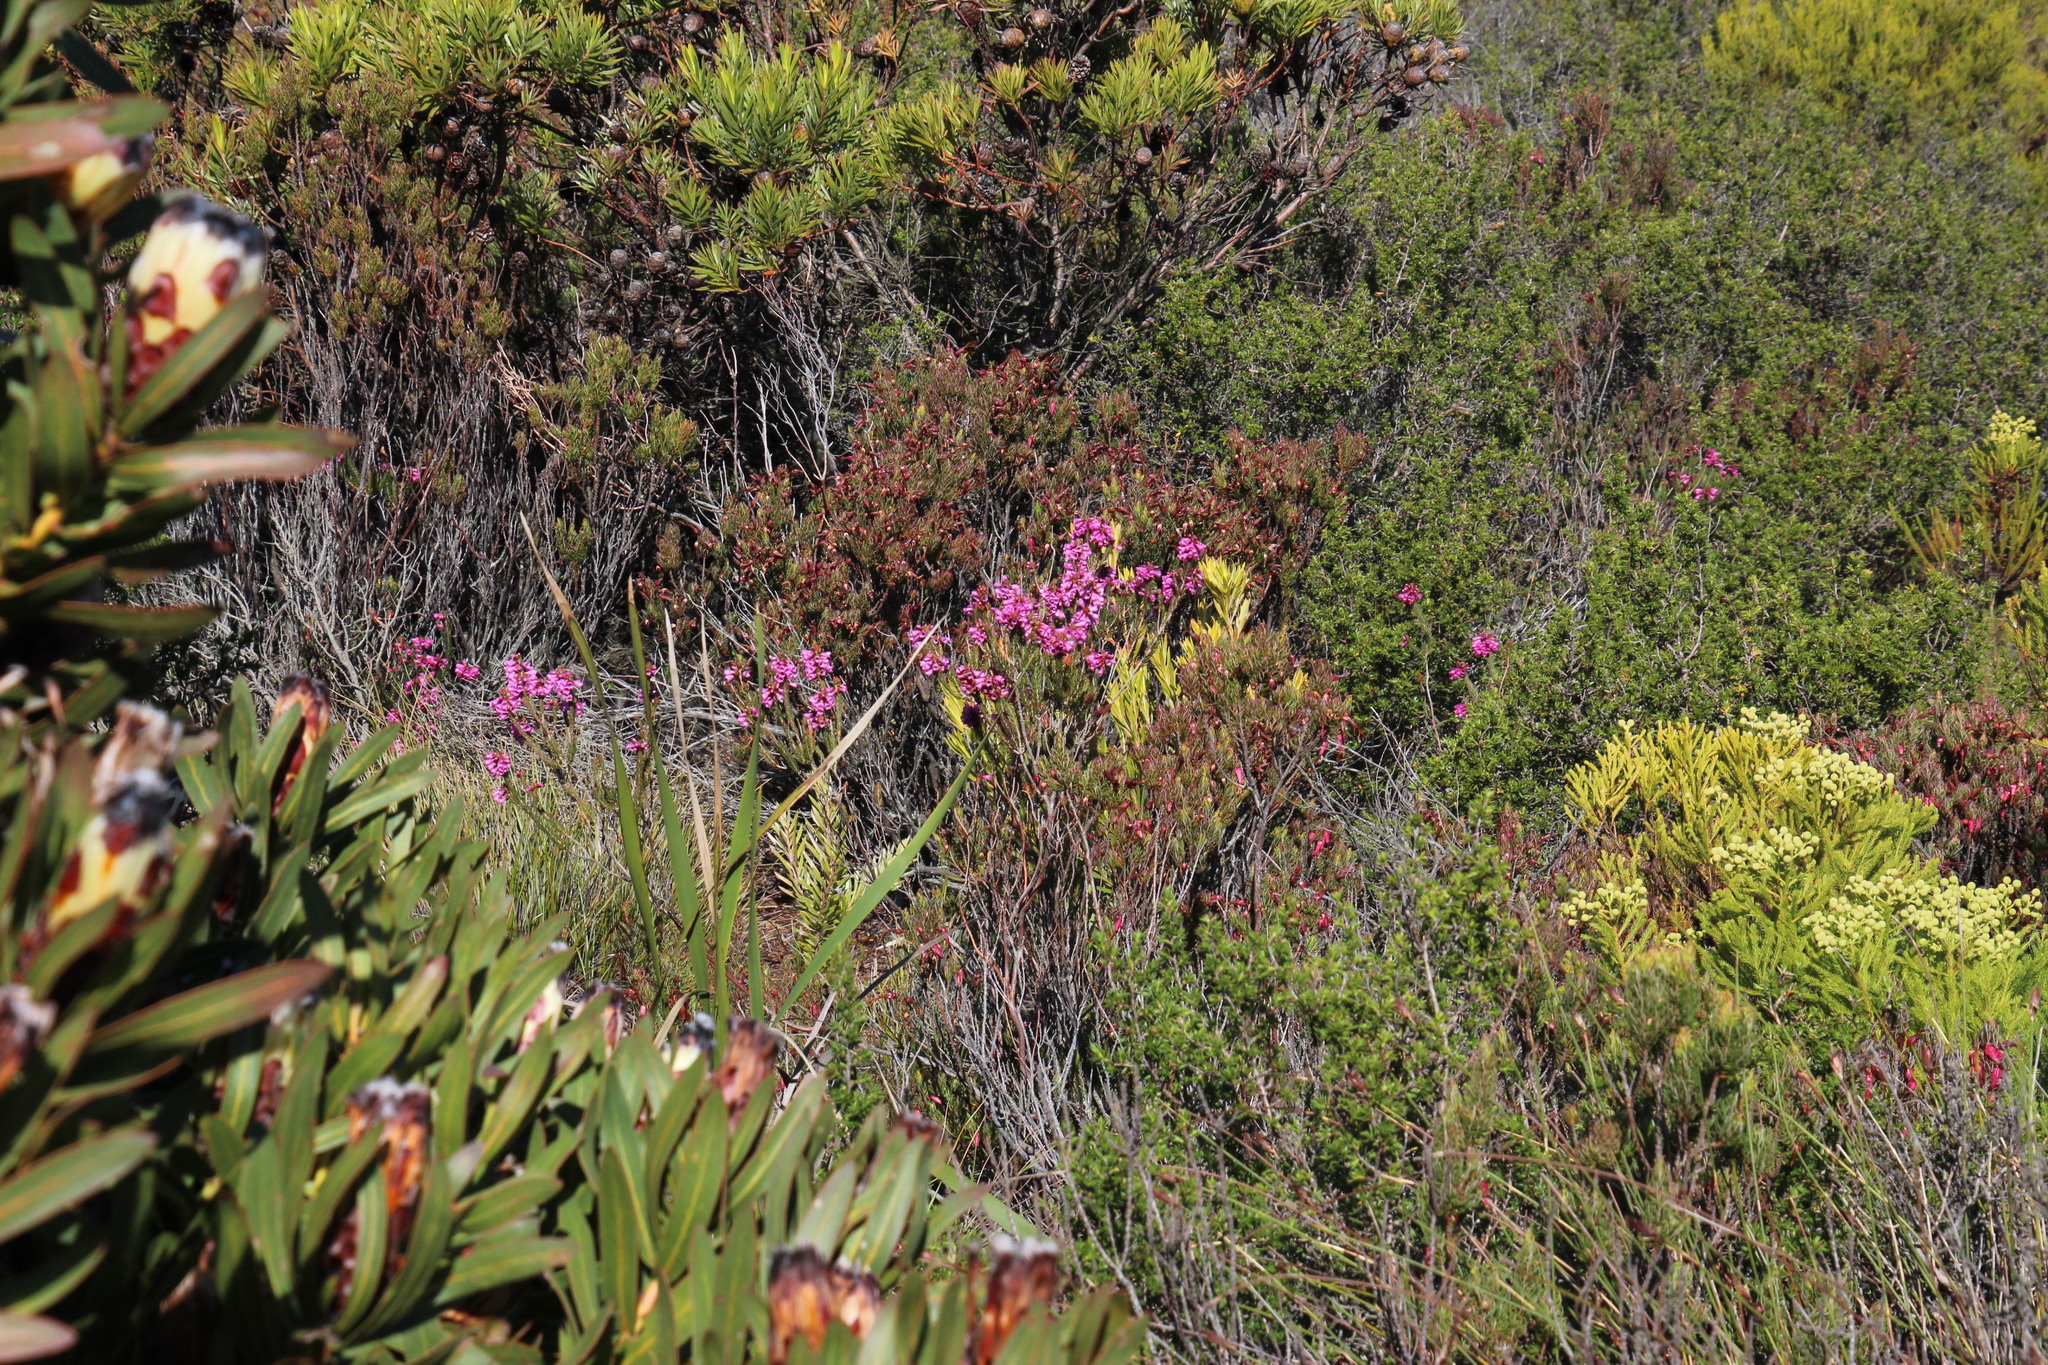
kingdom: Plantae
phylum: Tracheophyta
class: Magnoliopsida
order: Ericales
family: Ericaceae
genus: Erica
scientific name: Erica abietina
